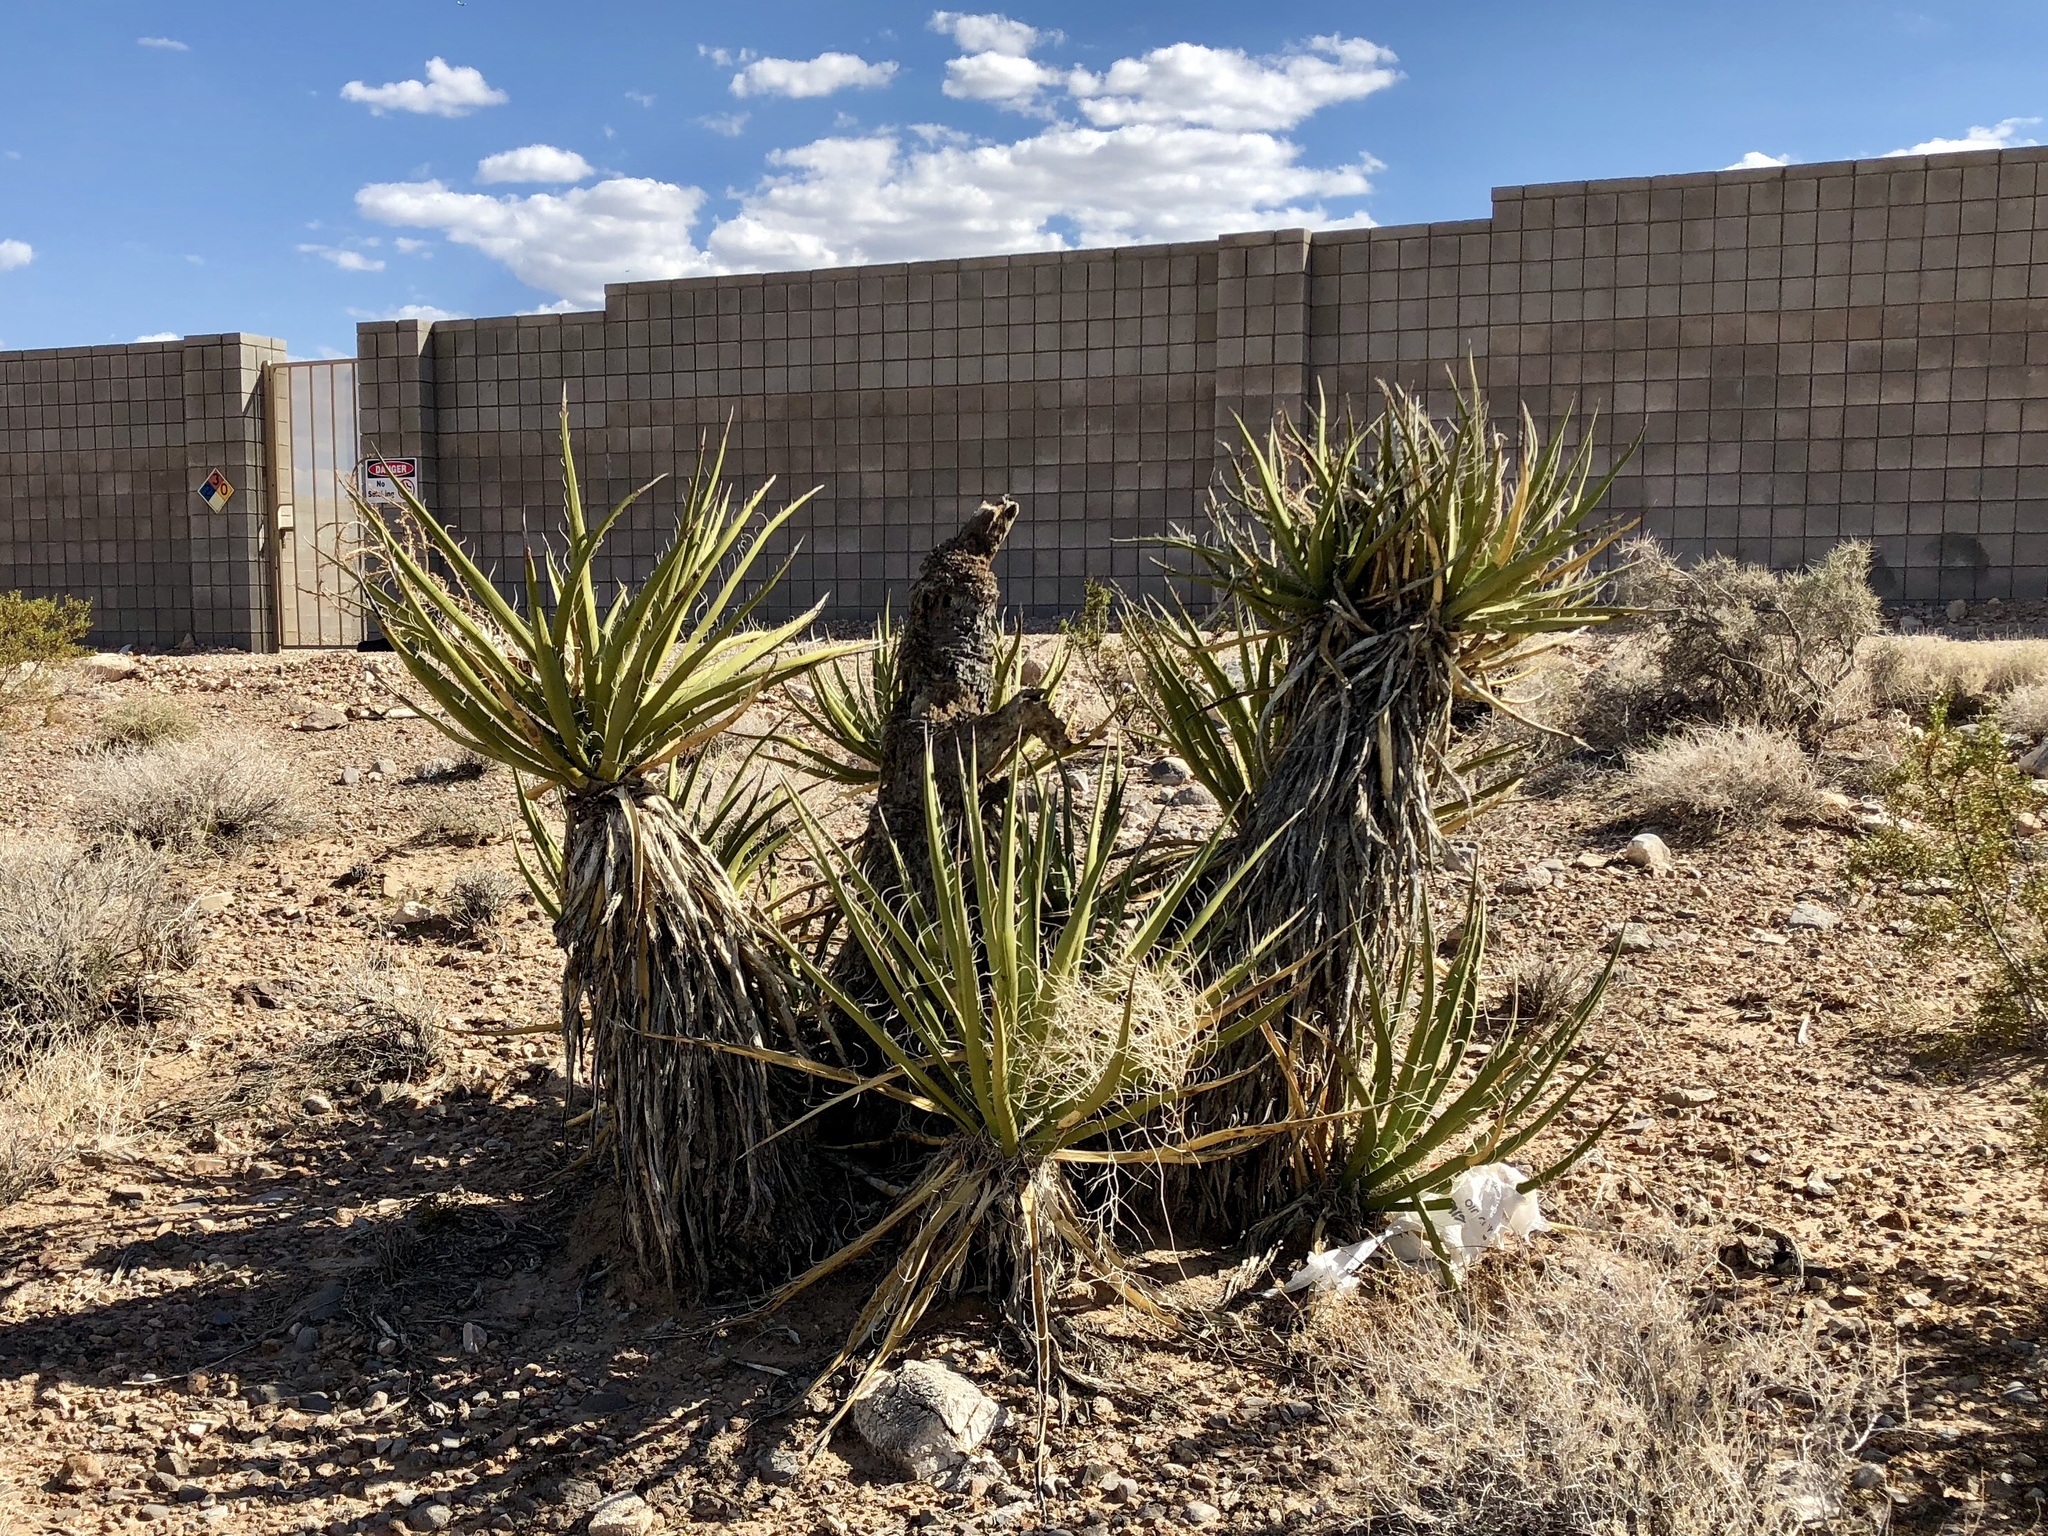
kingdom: Plantae
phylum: Tracheophyta
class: Liliopsida
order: Asparagales
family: Asparagaceae
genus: Yucca
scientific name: Yucca schidigera
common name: Mojave yucca
